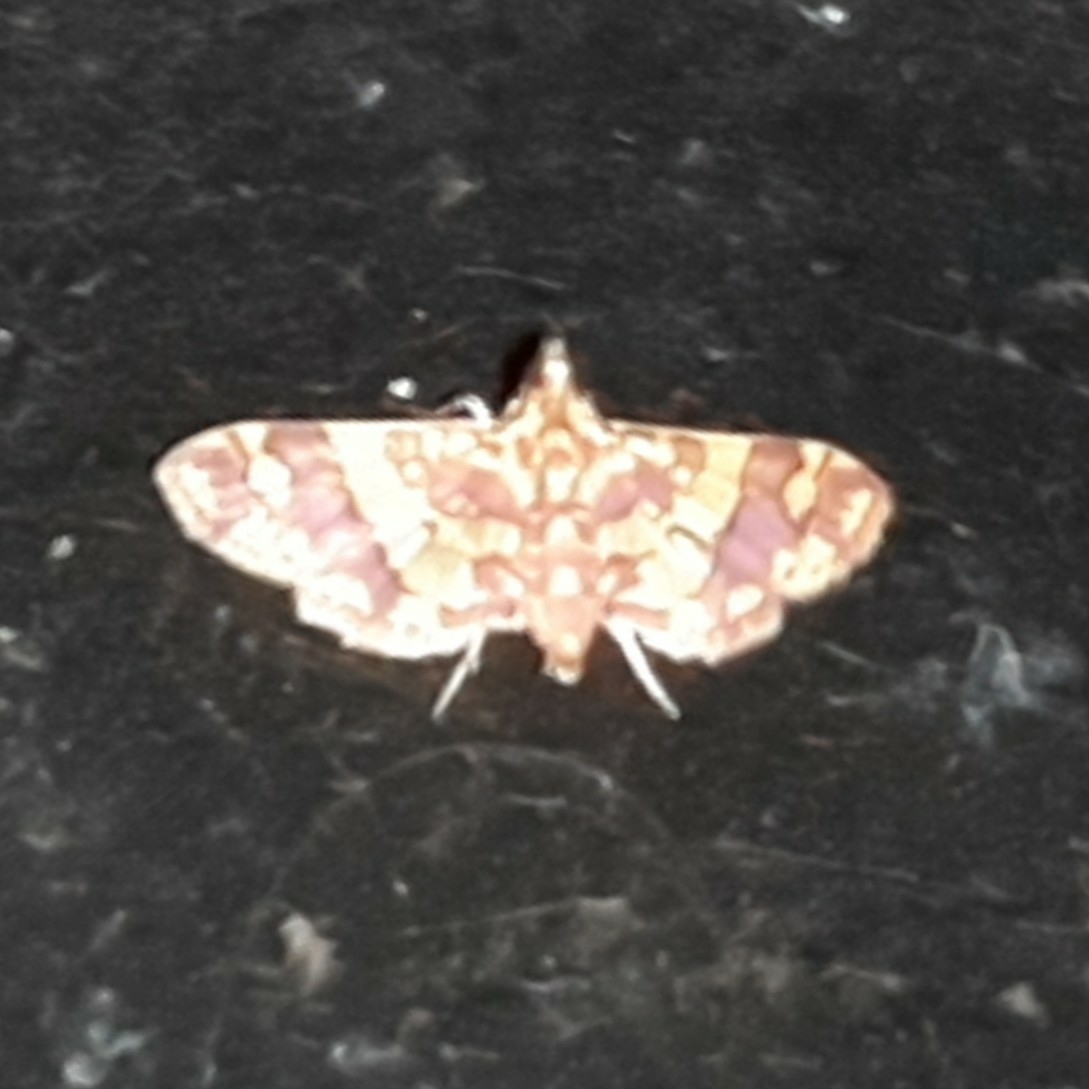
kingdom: Animalia
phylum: Arthropoda
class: Insecta
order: Lepidoptera
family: Crambidae
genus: Trithyris
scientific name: Trithyris Prenesta rubrocinctalis
